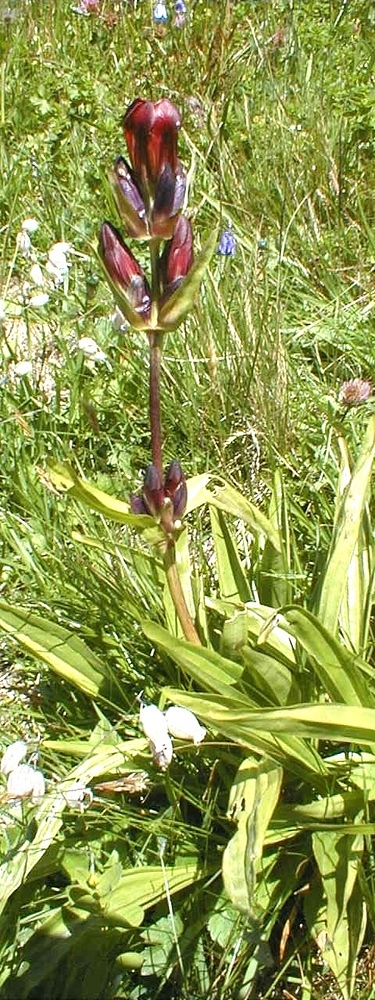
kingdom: Plantae
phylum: Tracheophyta
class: Magnoliopsida
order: Gentianales
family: Gentianaceae
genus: Gentiana
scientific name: Gentiana purpurea
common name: Purple gentian
